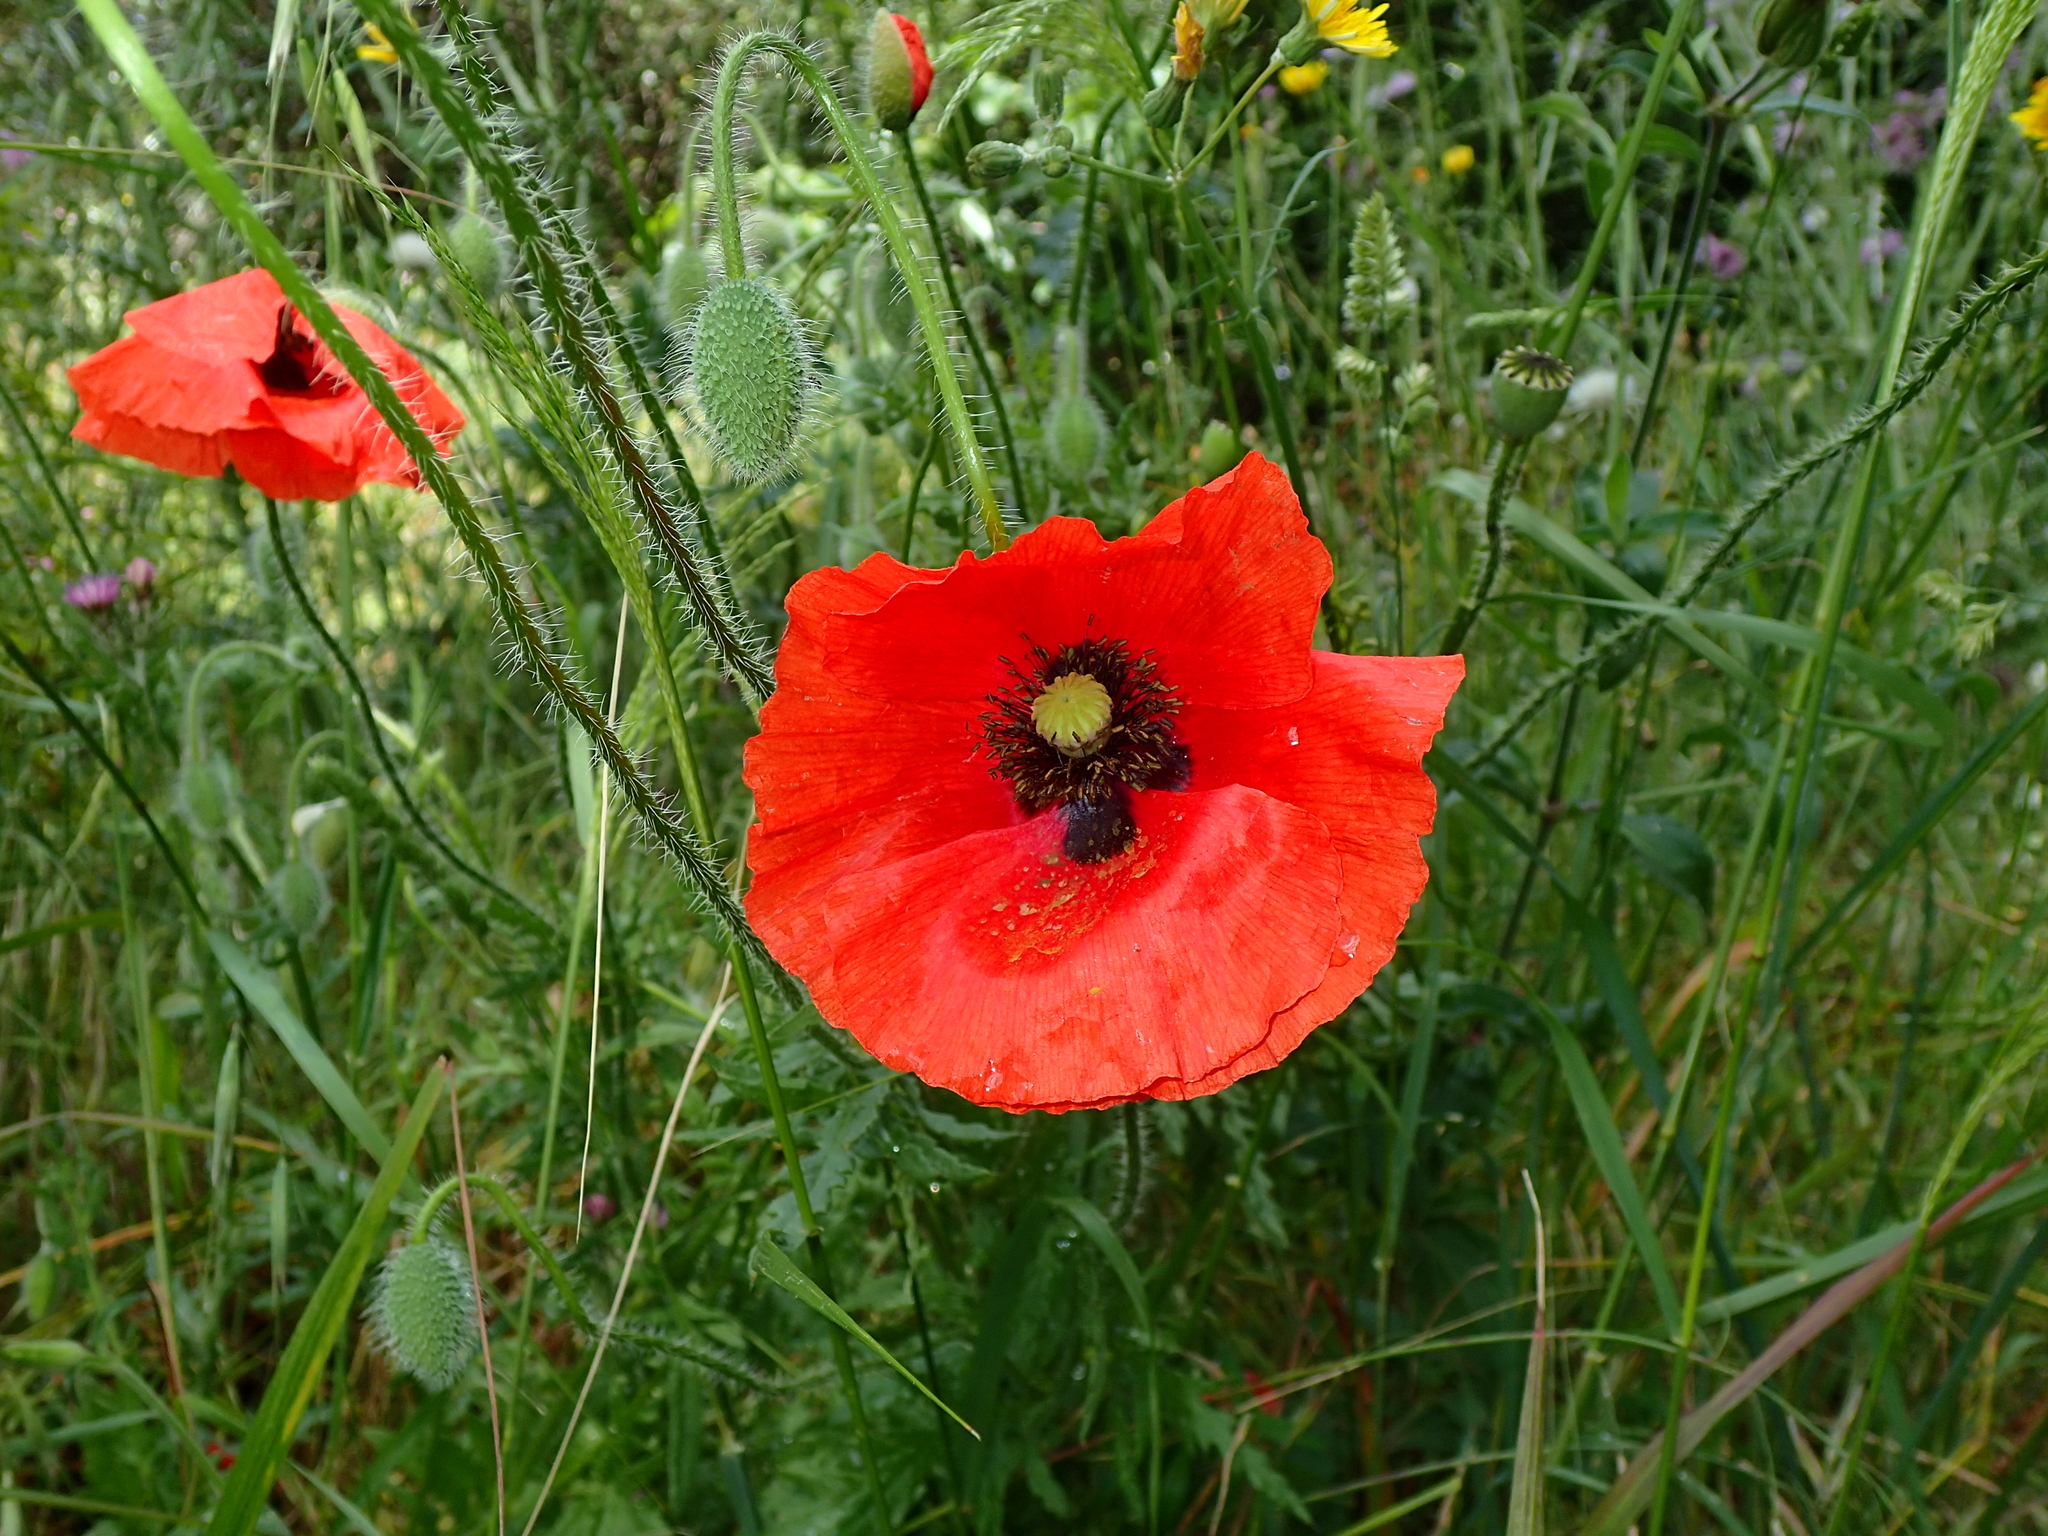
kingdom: Plantae
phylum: Tracheophyta
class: Magnoliopsida
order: Ranunculales
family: Papaveraceae
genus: Papaver
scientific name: Papaver rhoeas
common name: Corn poppy
